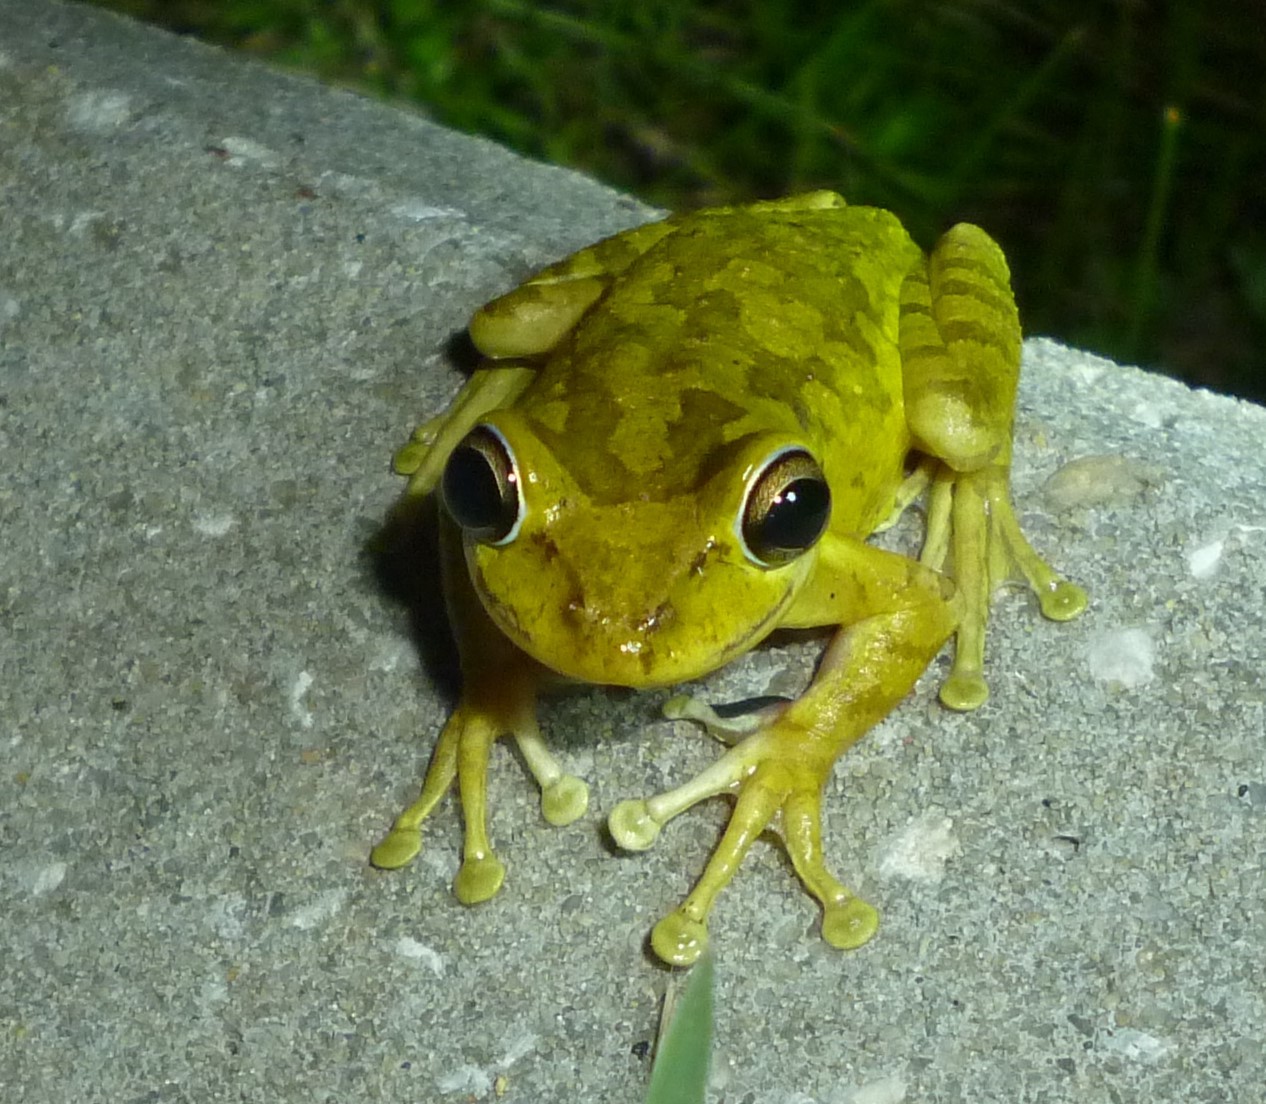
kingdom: Animalia
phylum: Chordata
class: Amphibia
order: Anura
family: Hylidae
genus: Osteopilus
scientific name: Osteopilus septentrionalis
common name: Cuban treefrog
